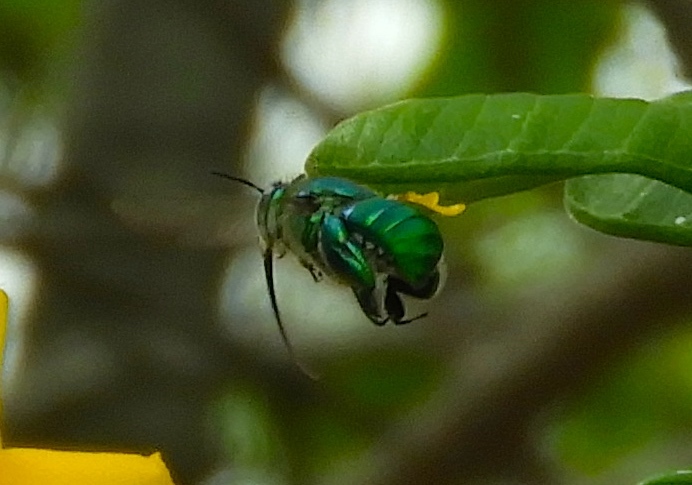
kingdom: Animalia
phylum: Arthropoda
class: Insecta
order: Hymenoptera
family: Apidae
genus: Euglossa
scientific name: Euglossa
